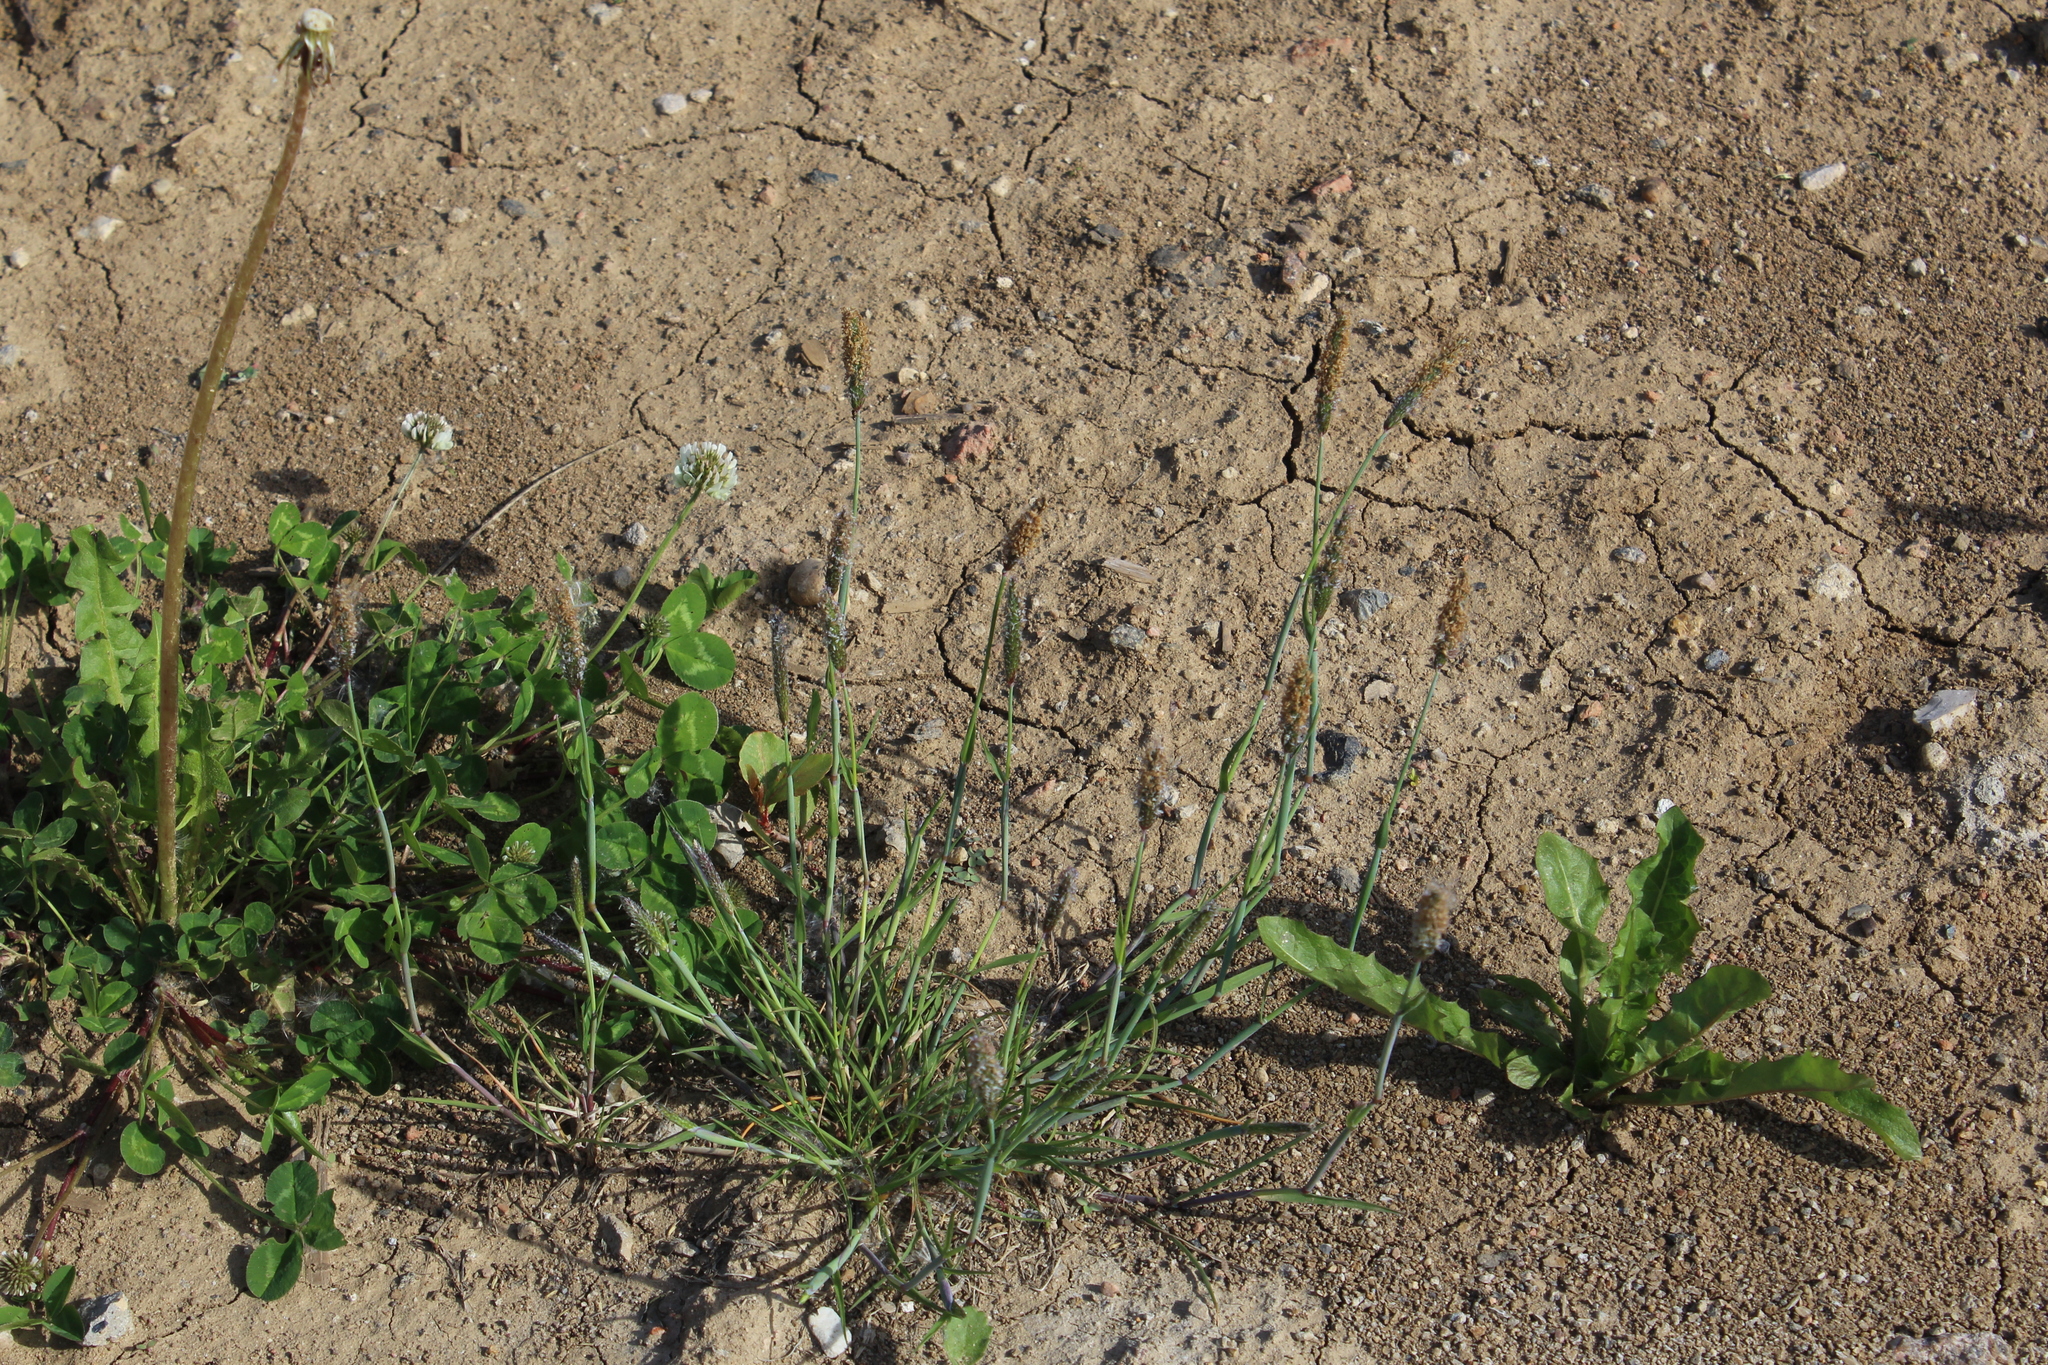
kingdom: Plantae
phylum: Tracheophyta
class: Liliopsida
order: Poales
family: Poaceae
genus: Alopecurus
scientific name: Alopecurus geniculatus
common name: Water foxtail
